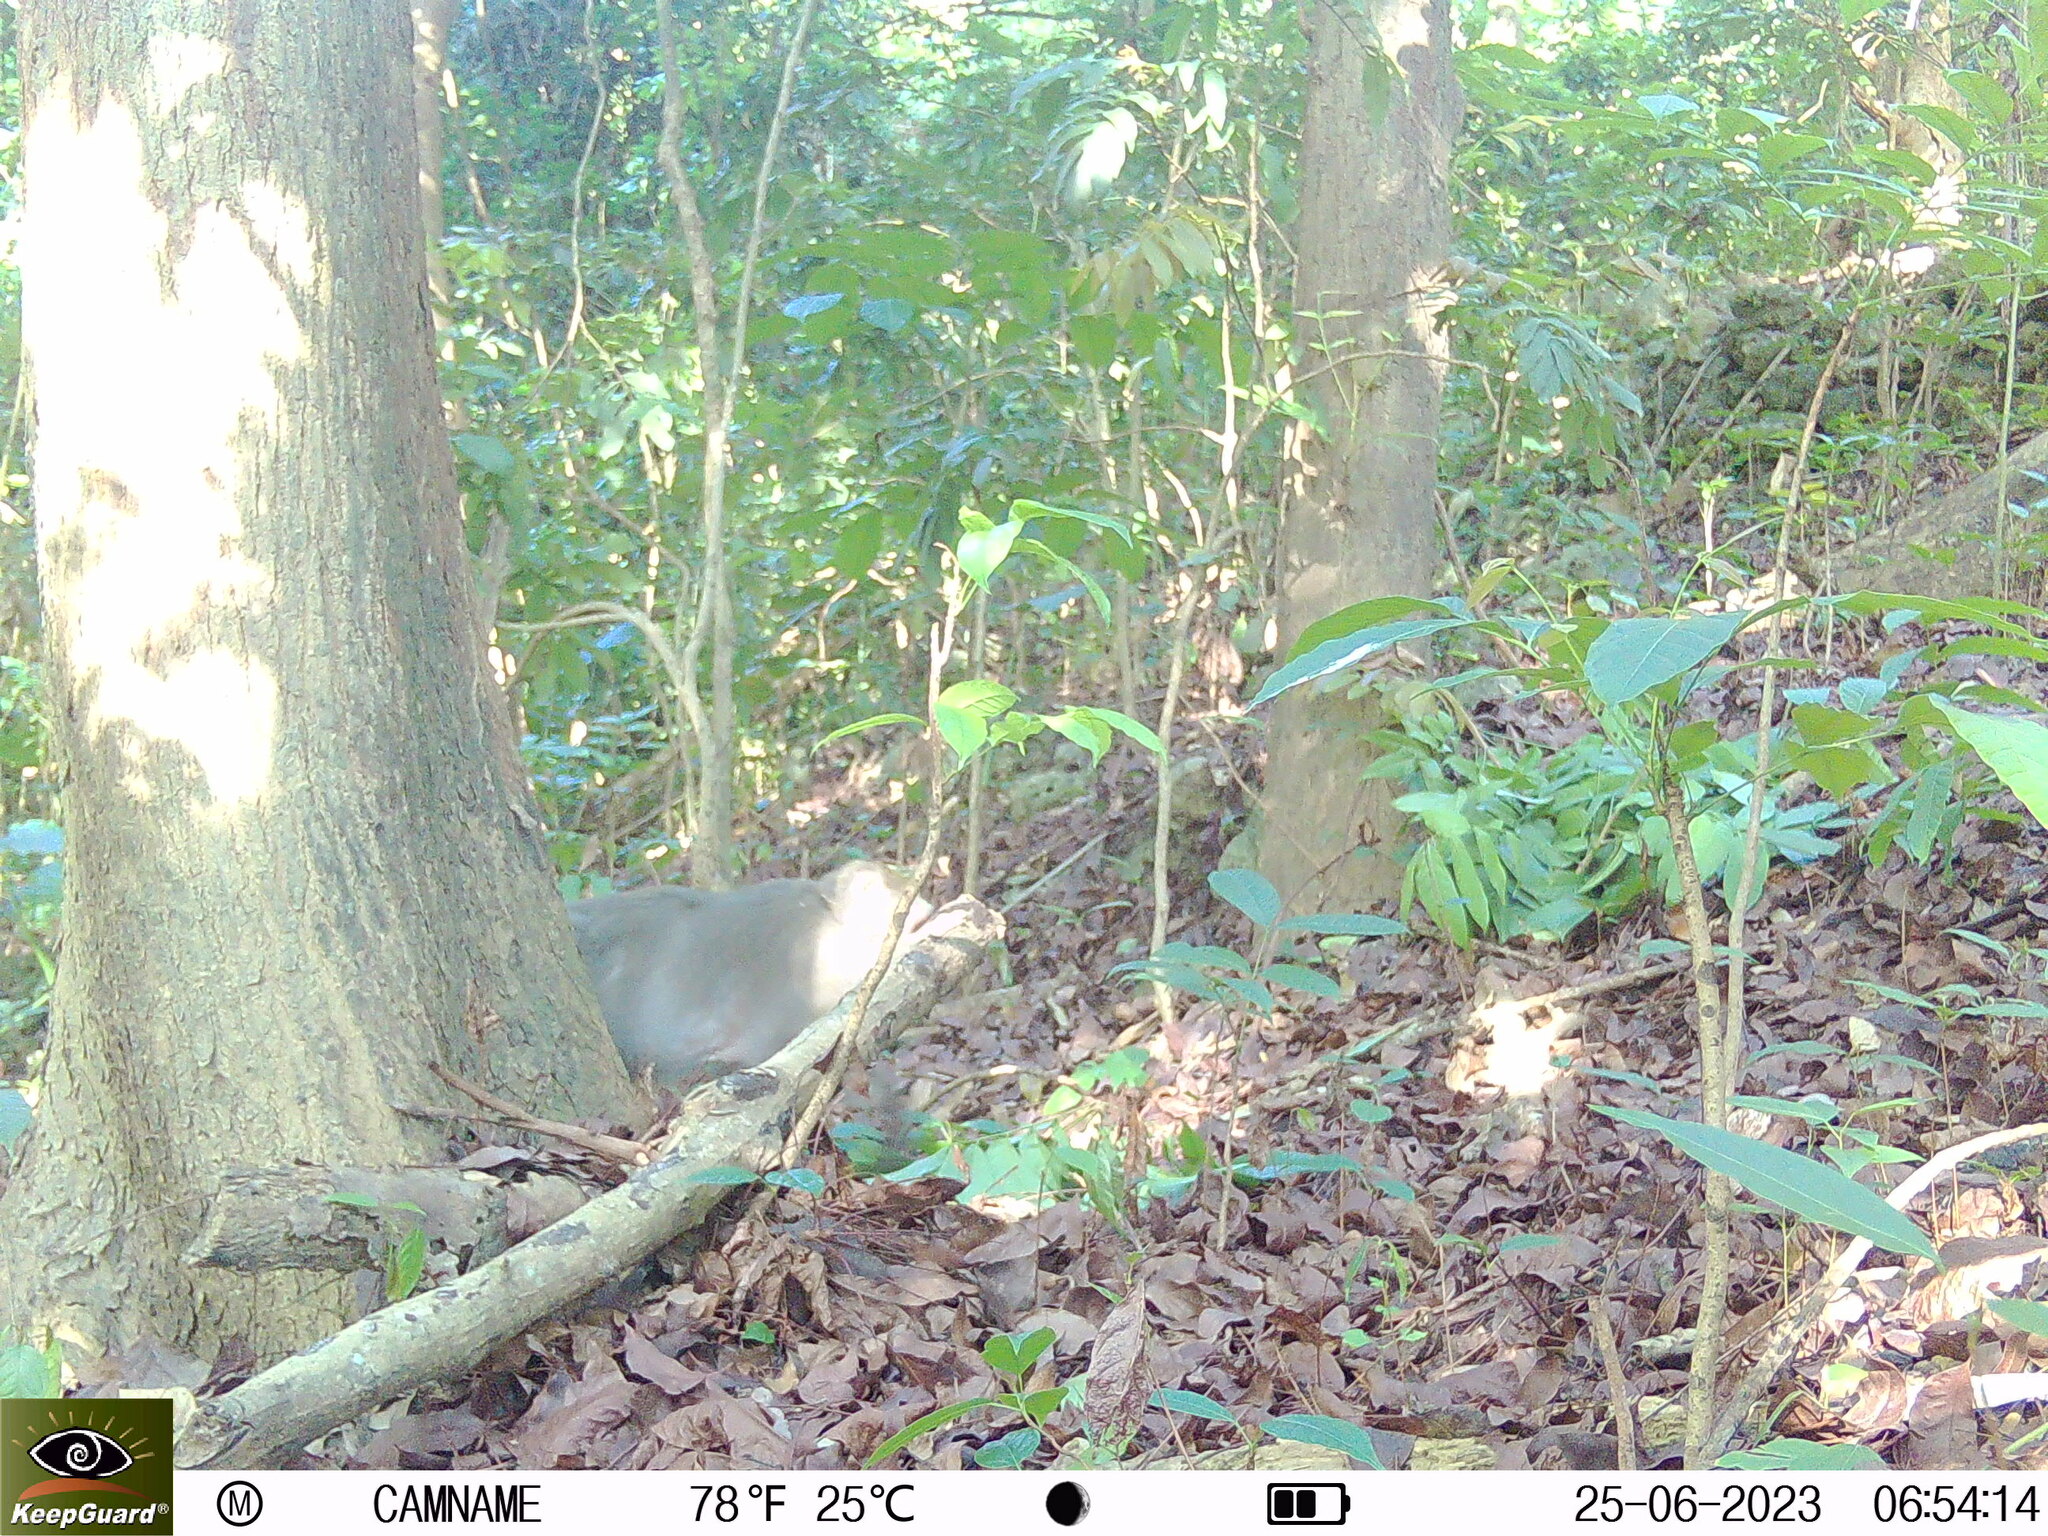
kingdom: Animalia
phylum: Chordata
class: Mammalia
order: Primates
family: Cercopithecidae
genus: Macaca
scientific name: Macaca cyclopis
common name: Formosan rock macaque
